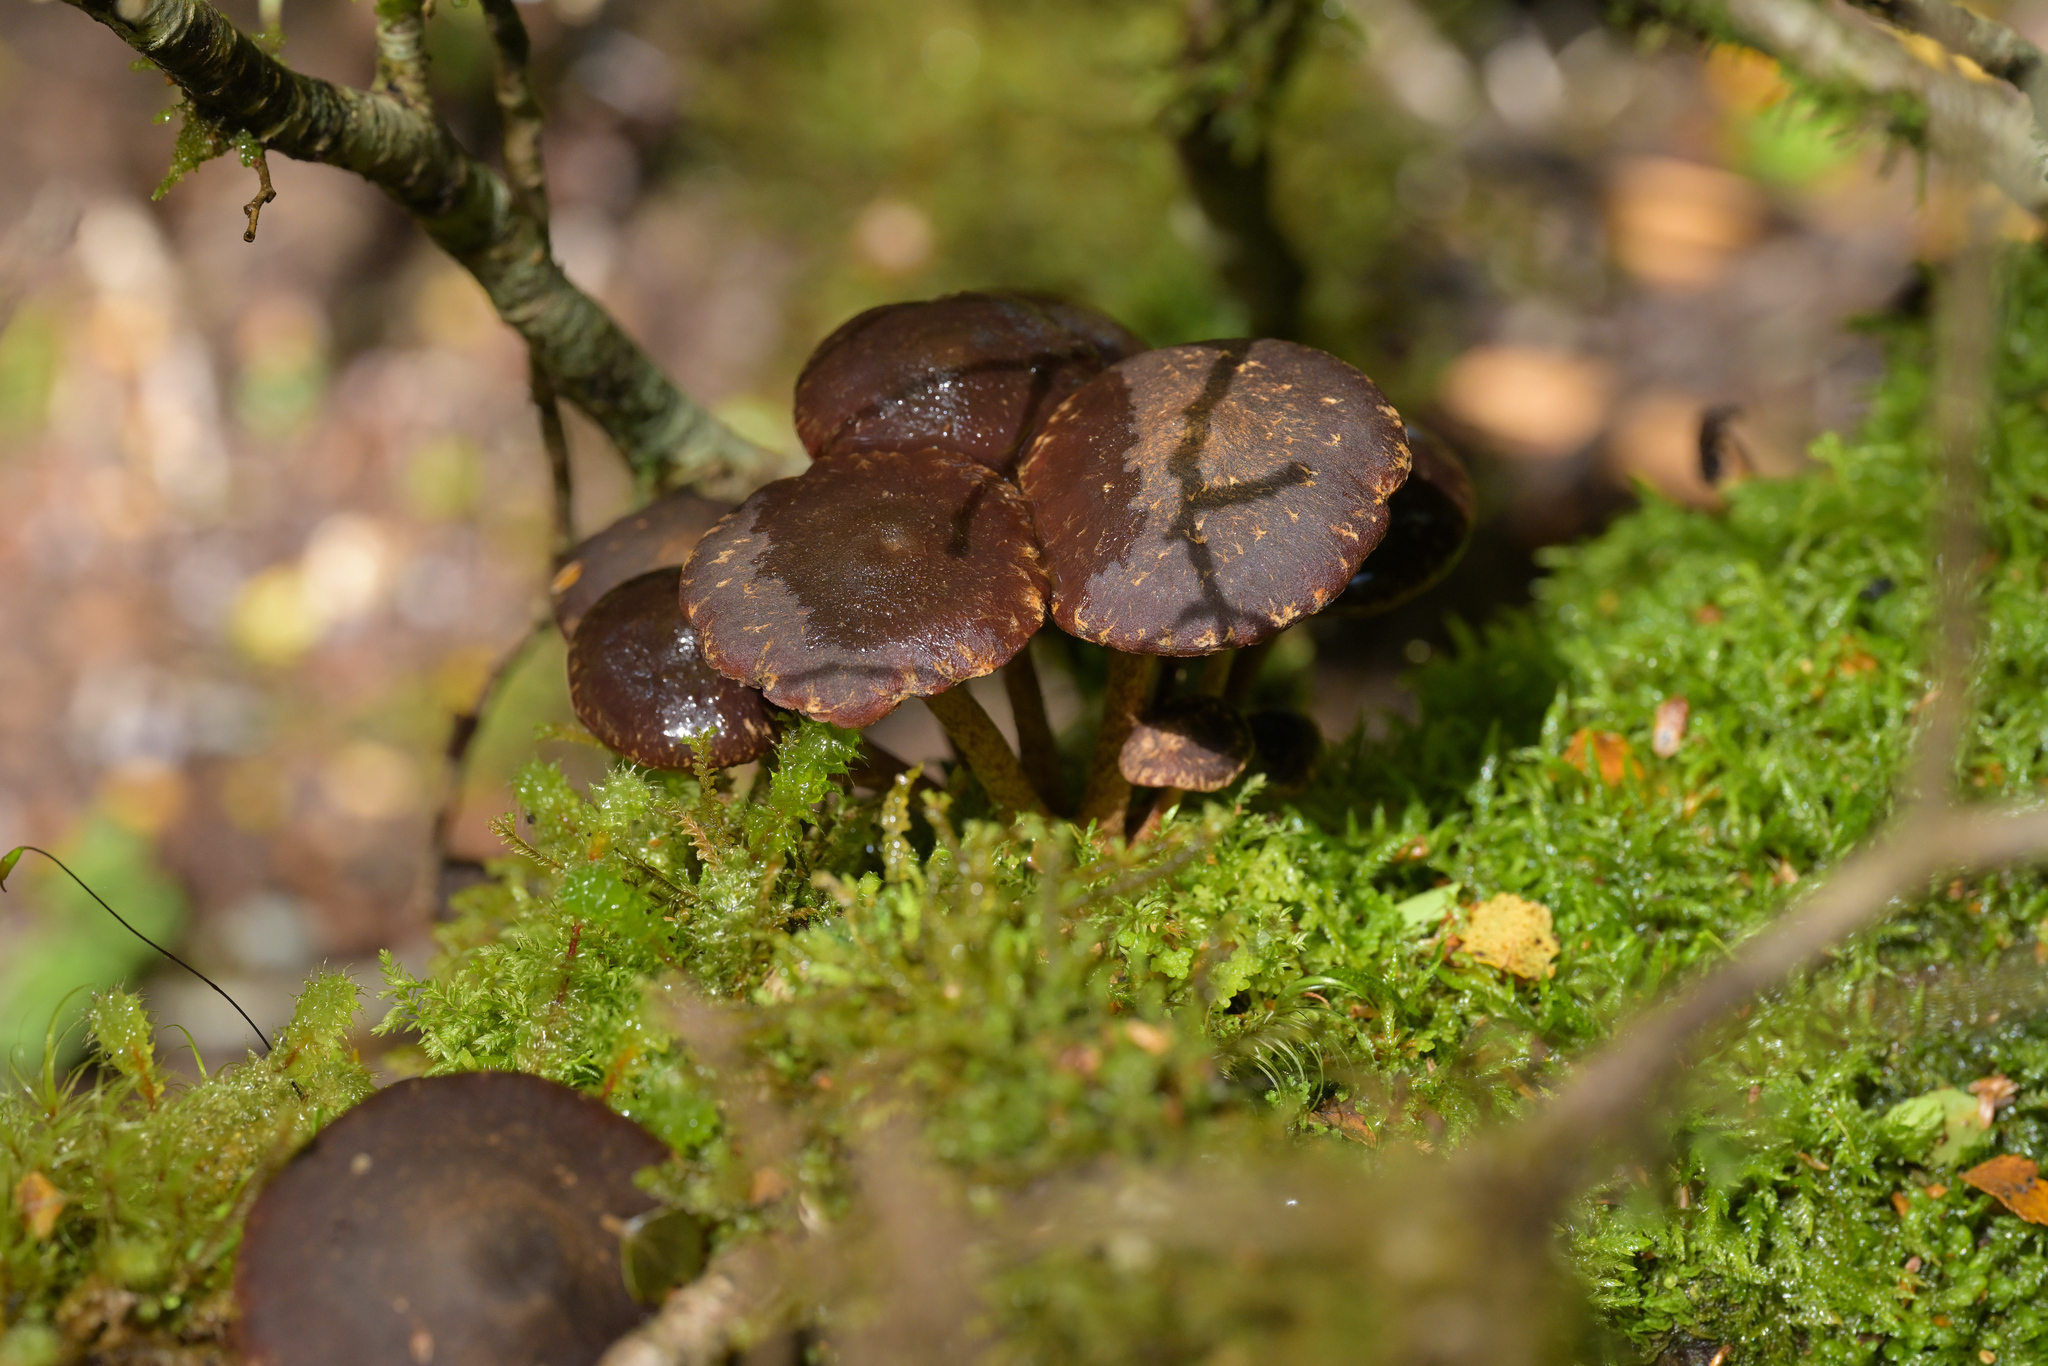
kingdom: Fungi
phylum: Basidiomycota
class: Agaricomycetes
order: Agaricales
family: Strophariaceae
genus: Hypholoma
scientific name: Hypholoma brunneum
